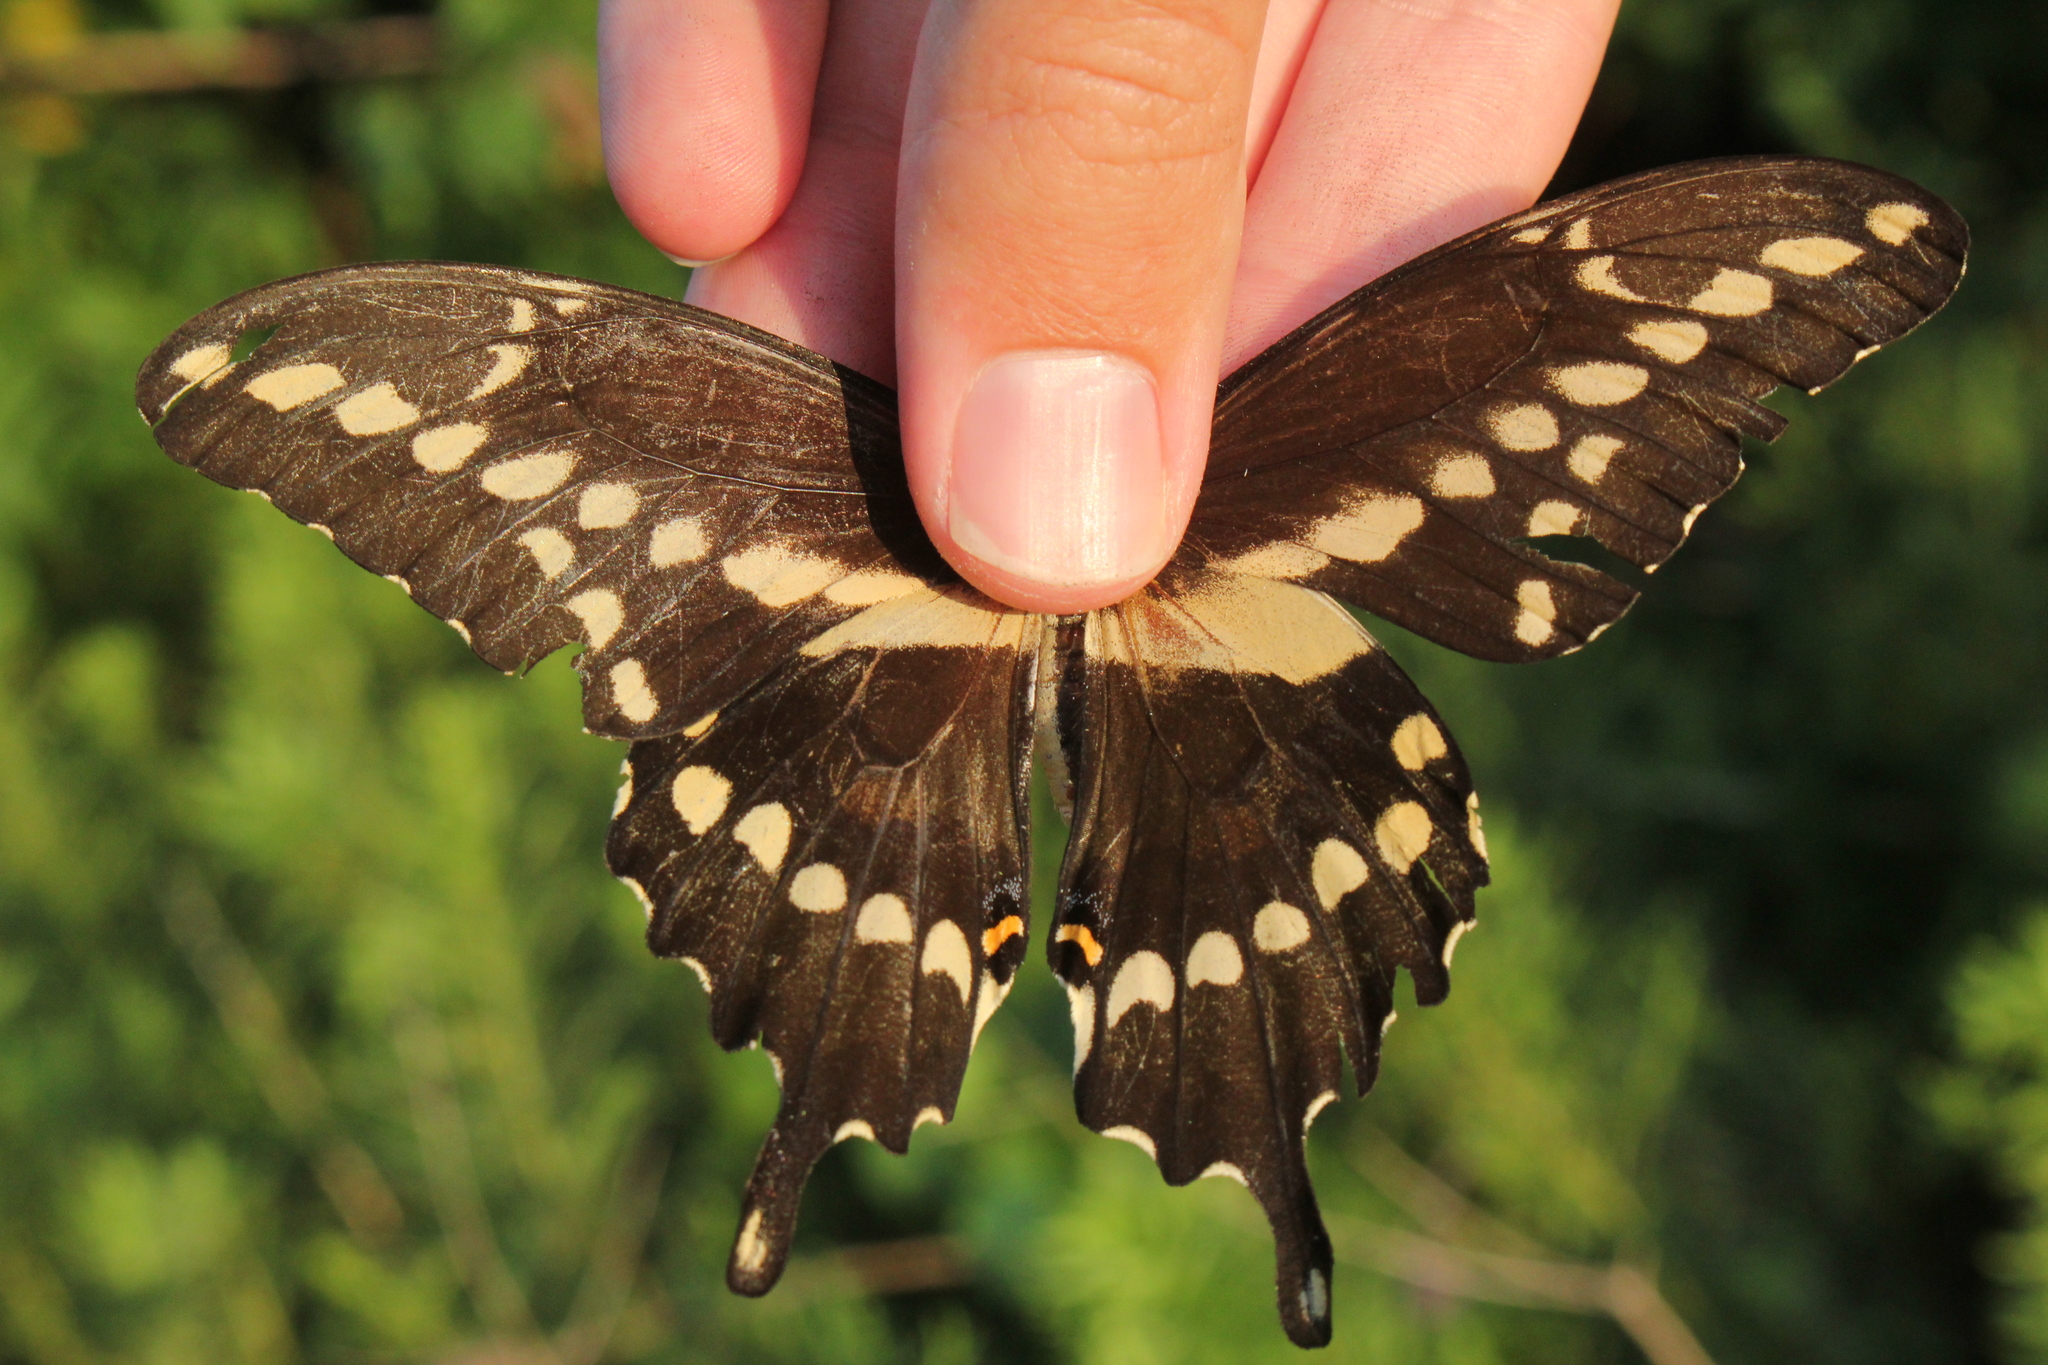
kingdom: Animalia
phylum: Arthropoda
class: Insecta
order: Lepidoptera
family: Papilionidae
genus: Papilio
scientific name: Papilio cresphontes
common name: Giant swallowtail
